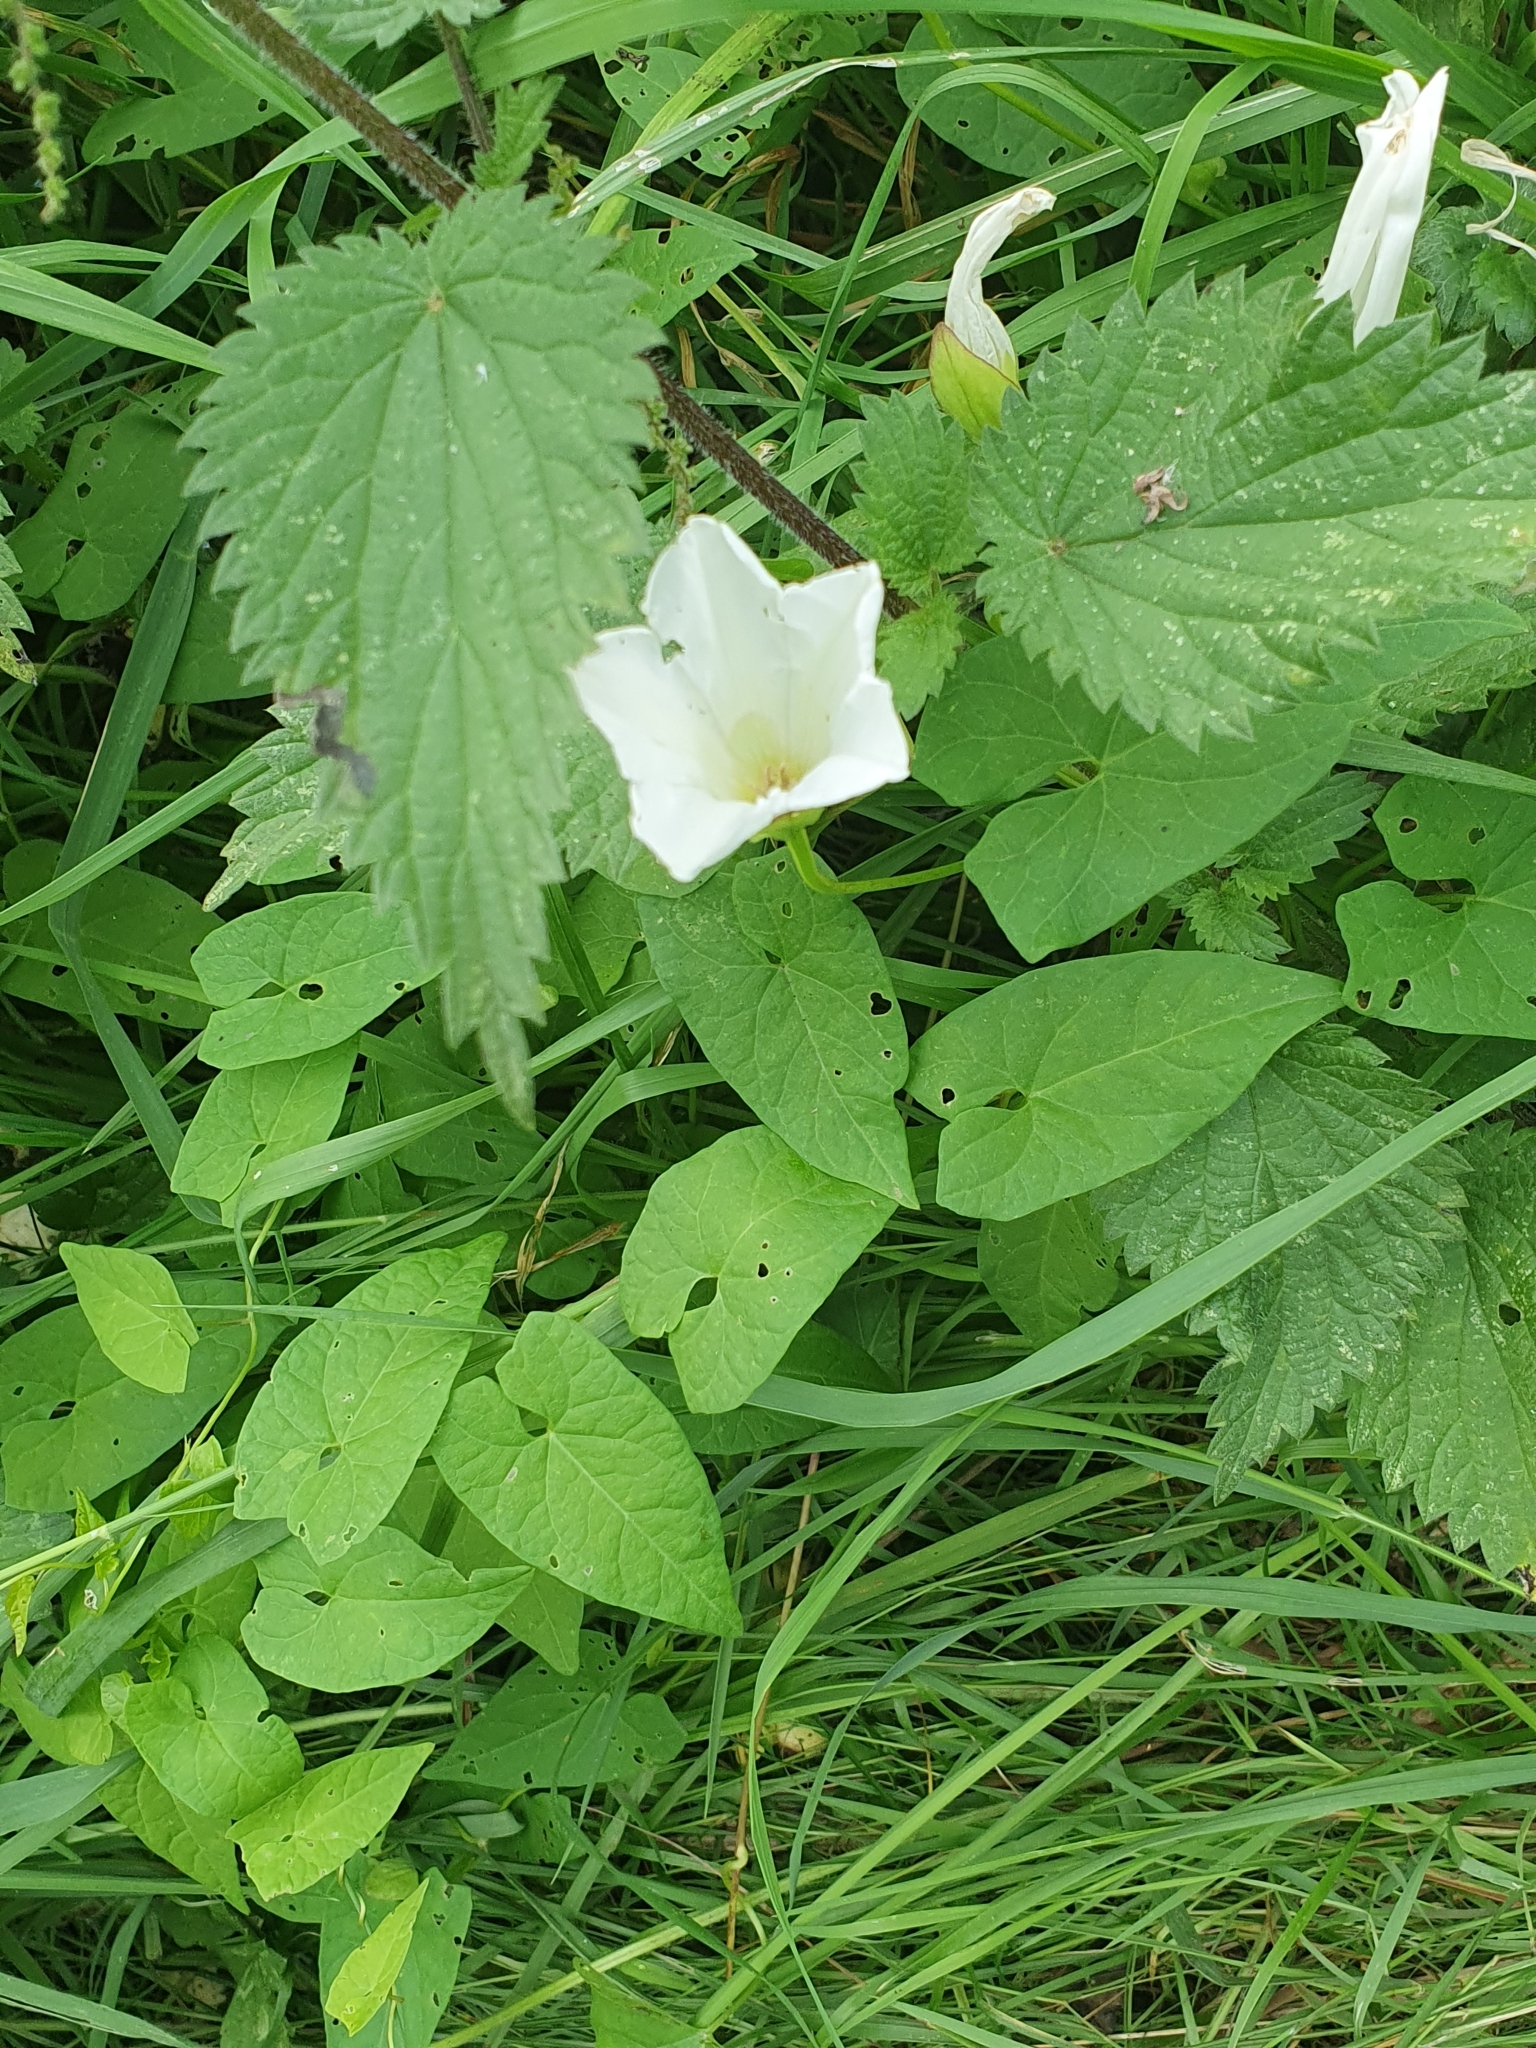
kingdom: Plantae
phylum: Tracheophyta
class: Magnoliopsida
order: Solanales
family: Convolvulaceae
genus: Calystegia
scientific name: Calystegia sepium
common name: Hedge bindweed
